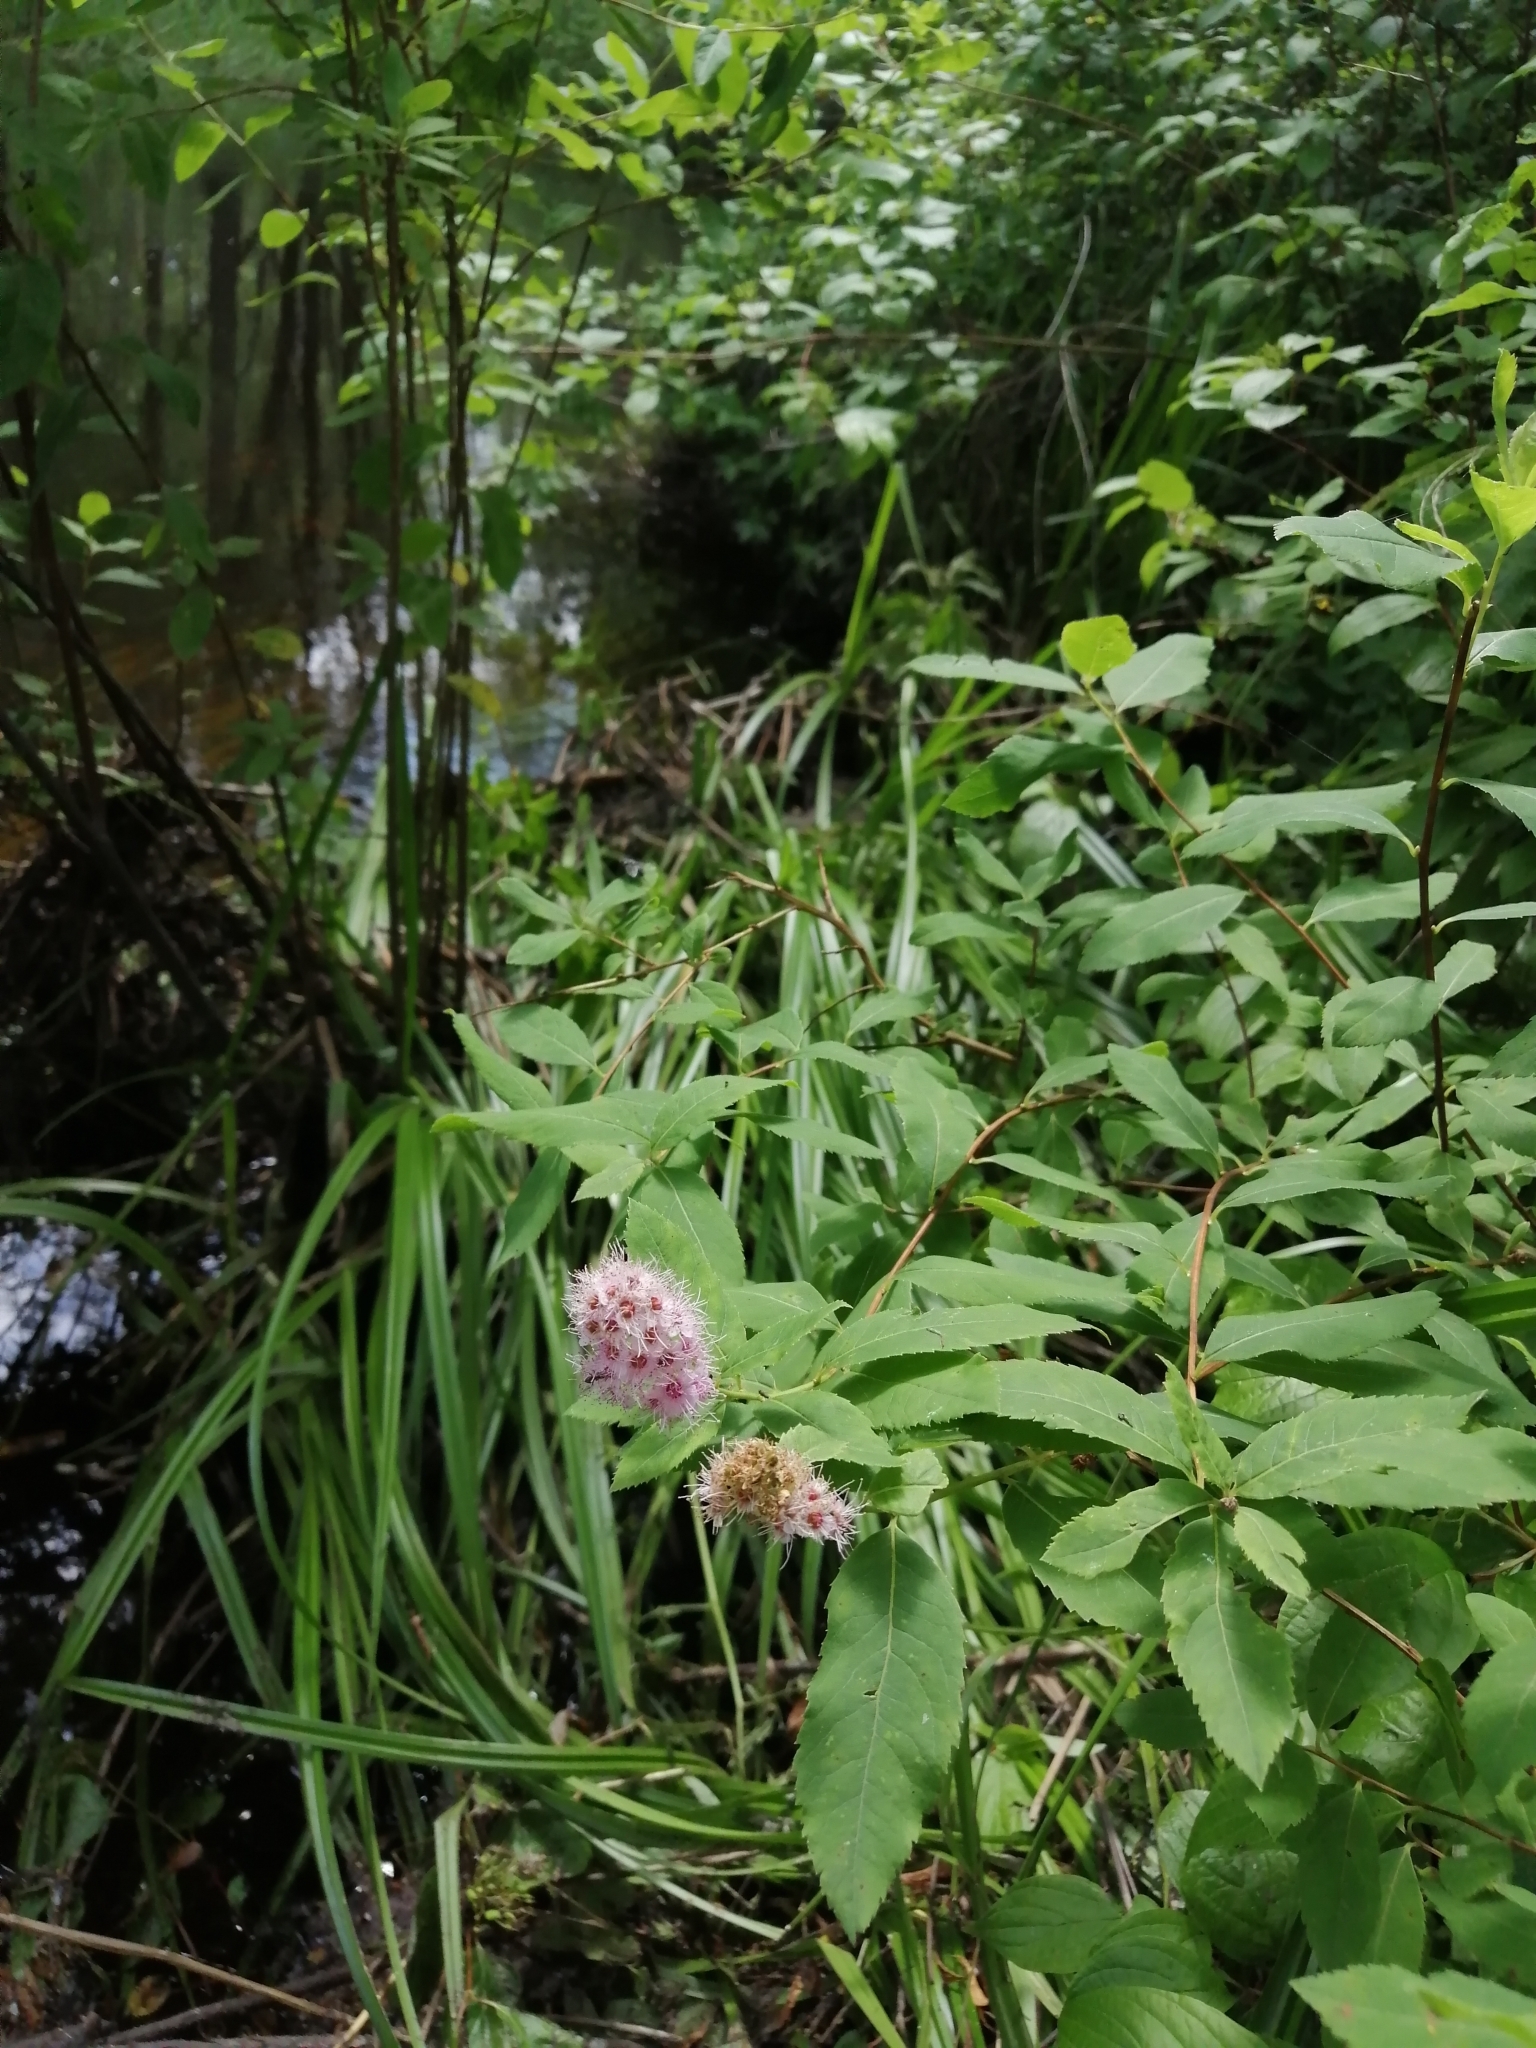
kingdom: Plantae
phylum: Tracheophyta
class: Magnoliopsida
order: Rosales
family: Rosaceae
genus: Spiraea
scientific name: Spiraea salicifolia
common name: Bridewort
